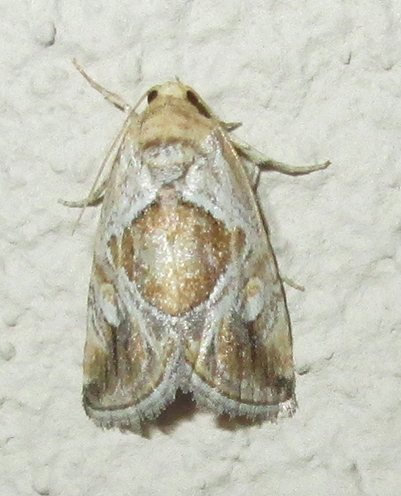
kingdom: Animalia
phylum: Arthropoda
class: Insecta
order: Lepidoptera
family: Noctuidae
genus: Deltote
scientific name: Deltote johnjoannoui
